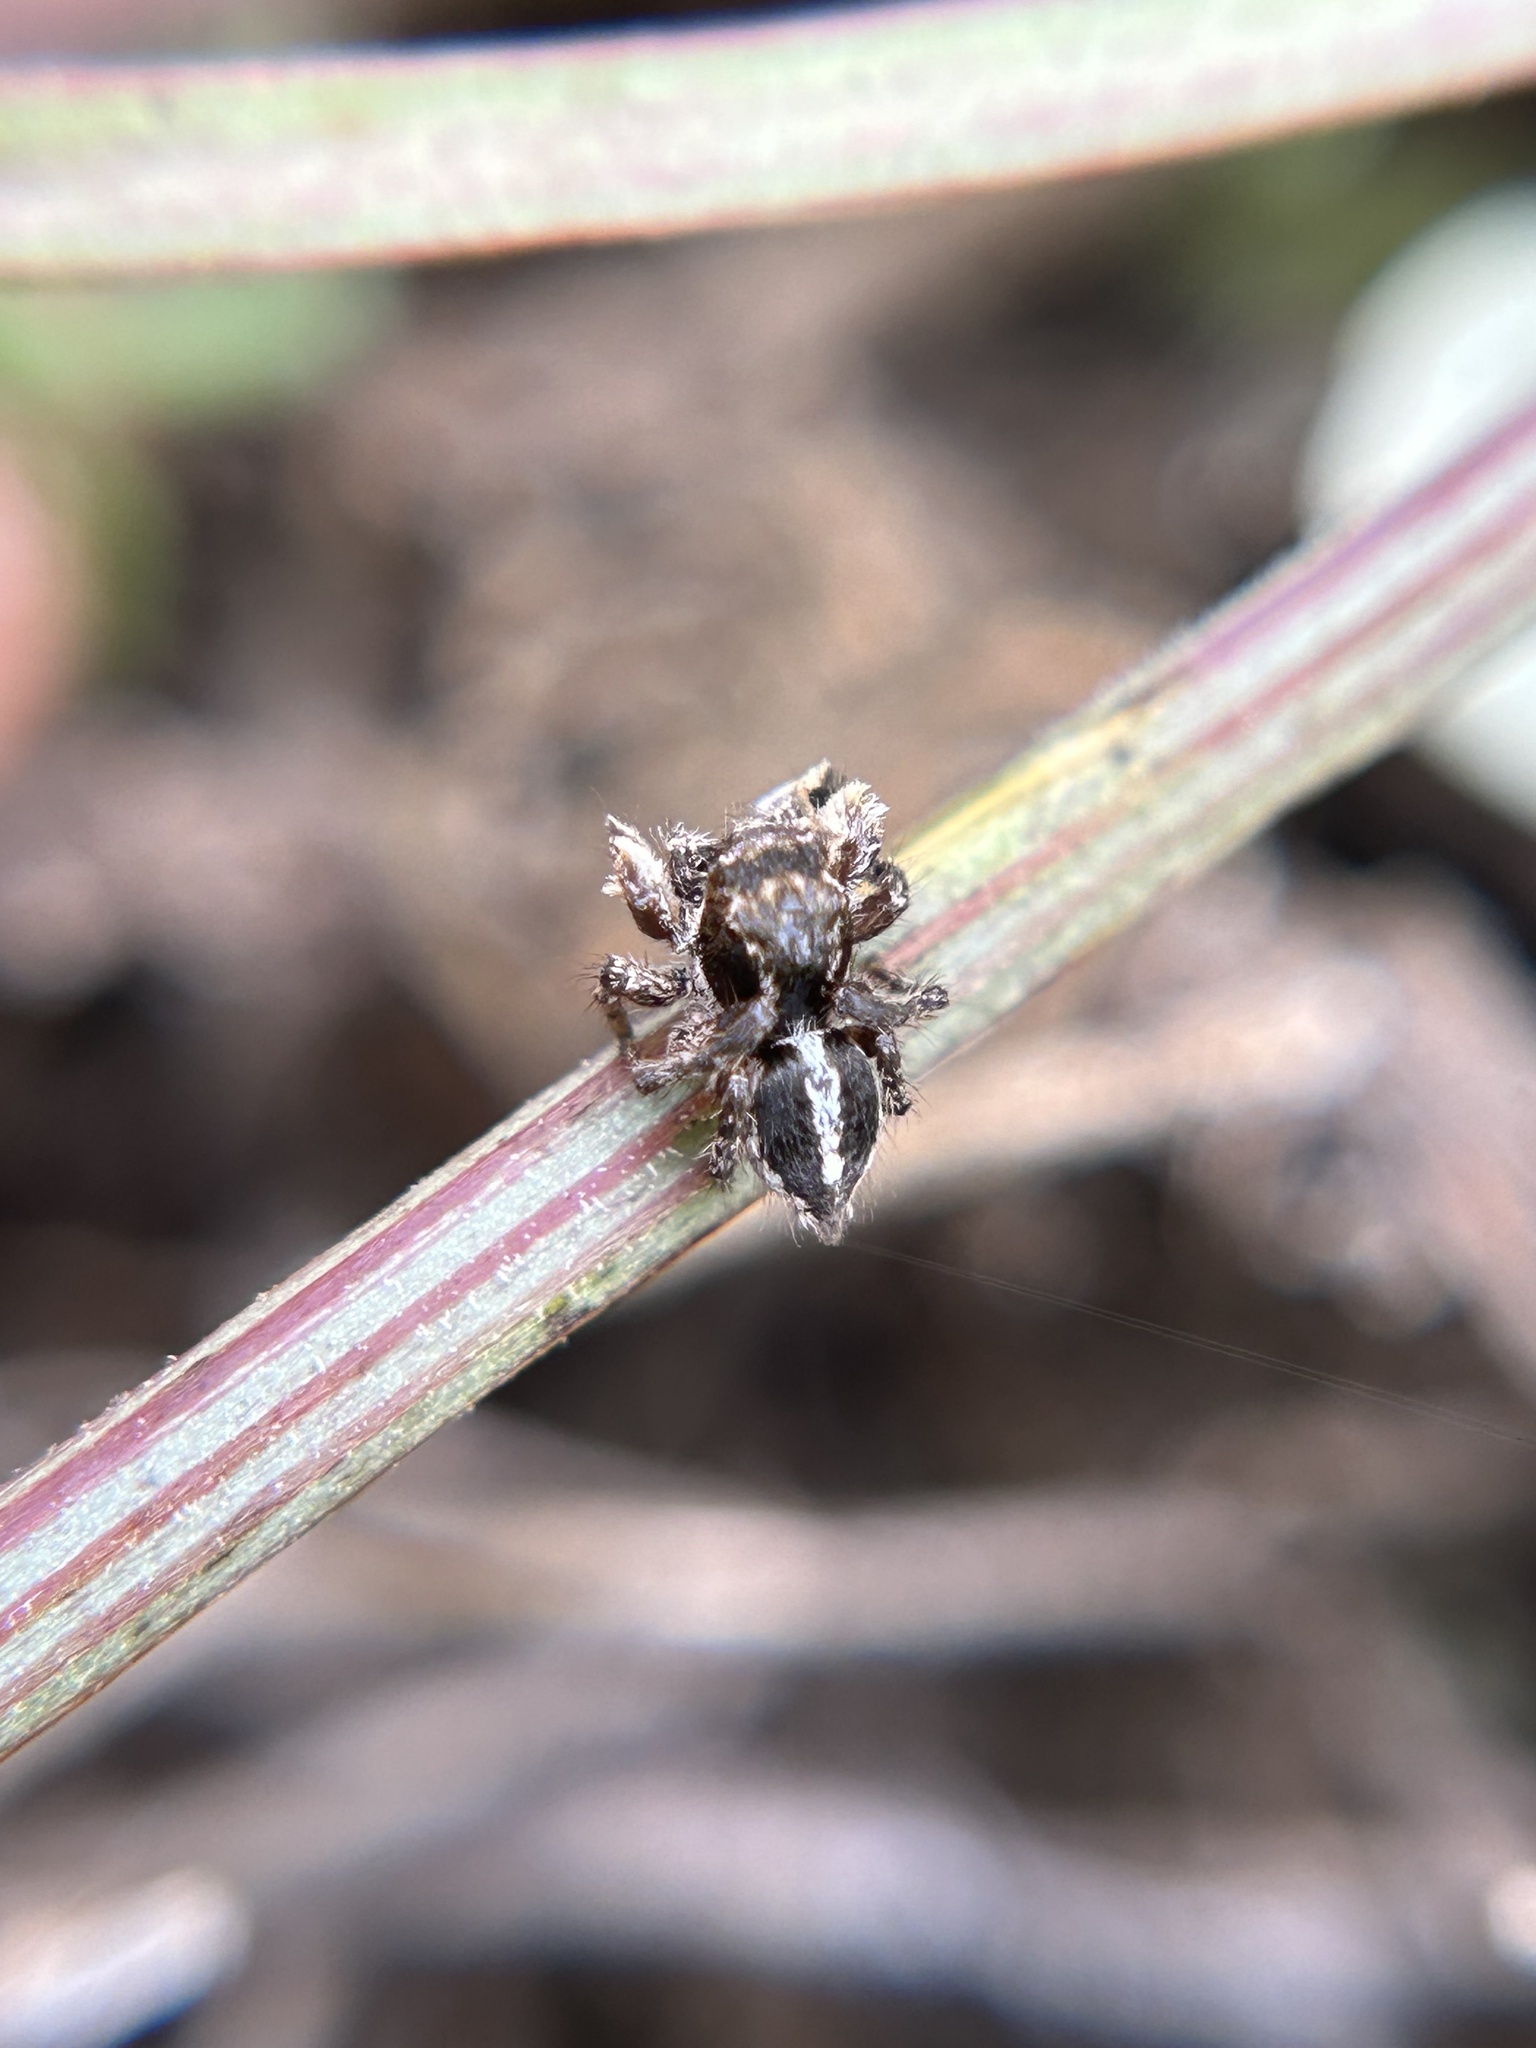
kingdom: Animalia
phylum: Arthropoda
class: Arachnida
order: Araneae
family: Salticidae
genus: Habronattus
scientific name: Habronattus elegans
